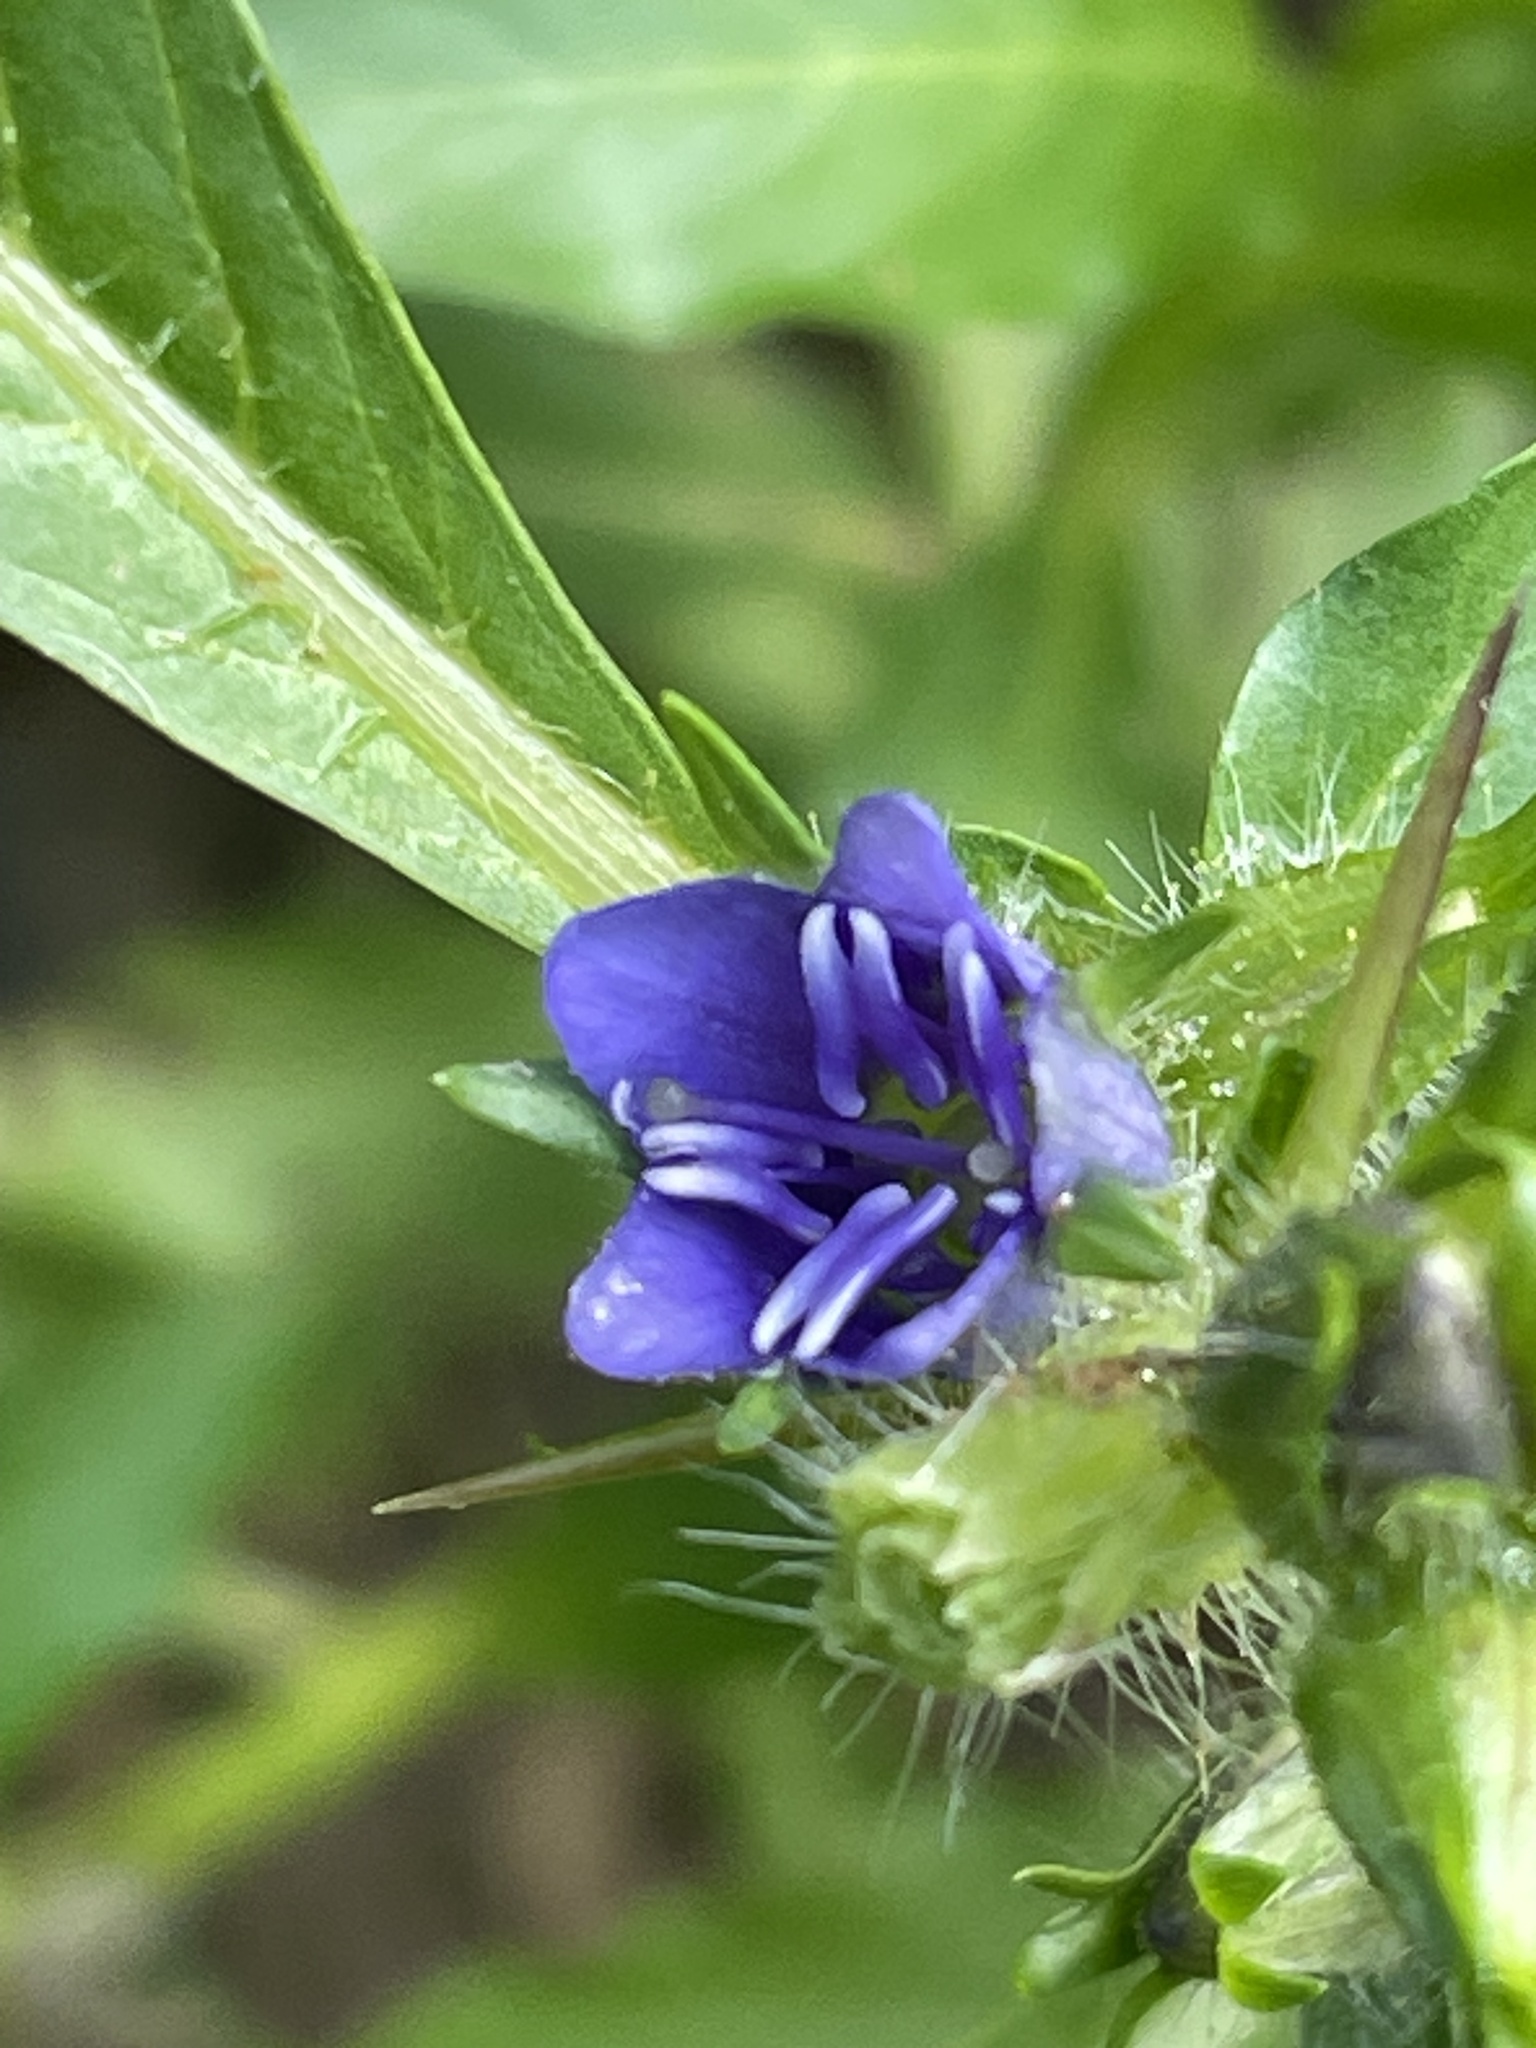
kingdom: Plantae
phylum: Tracheophyta
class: Magnoliopsida
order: Solanales
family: Hydroleaceae
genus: Hydrolea
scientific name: Hydrolea quadrivalvis
